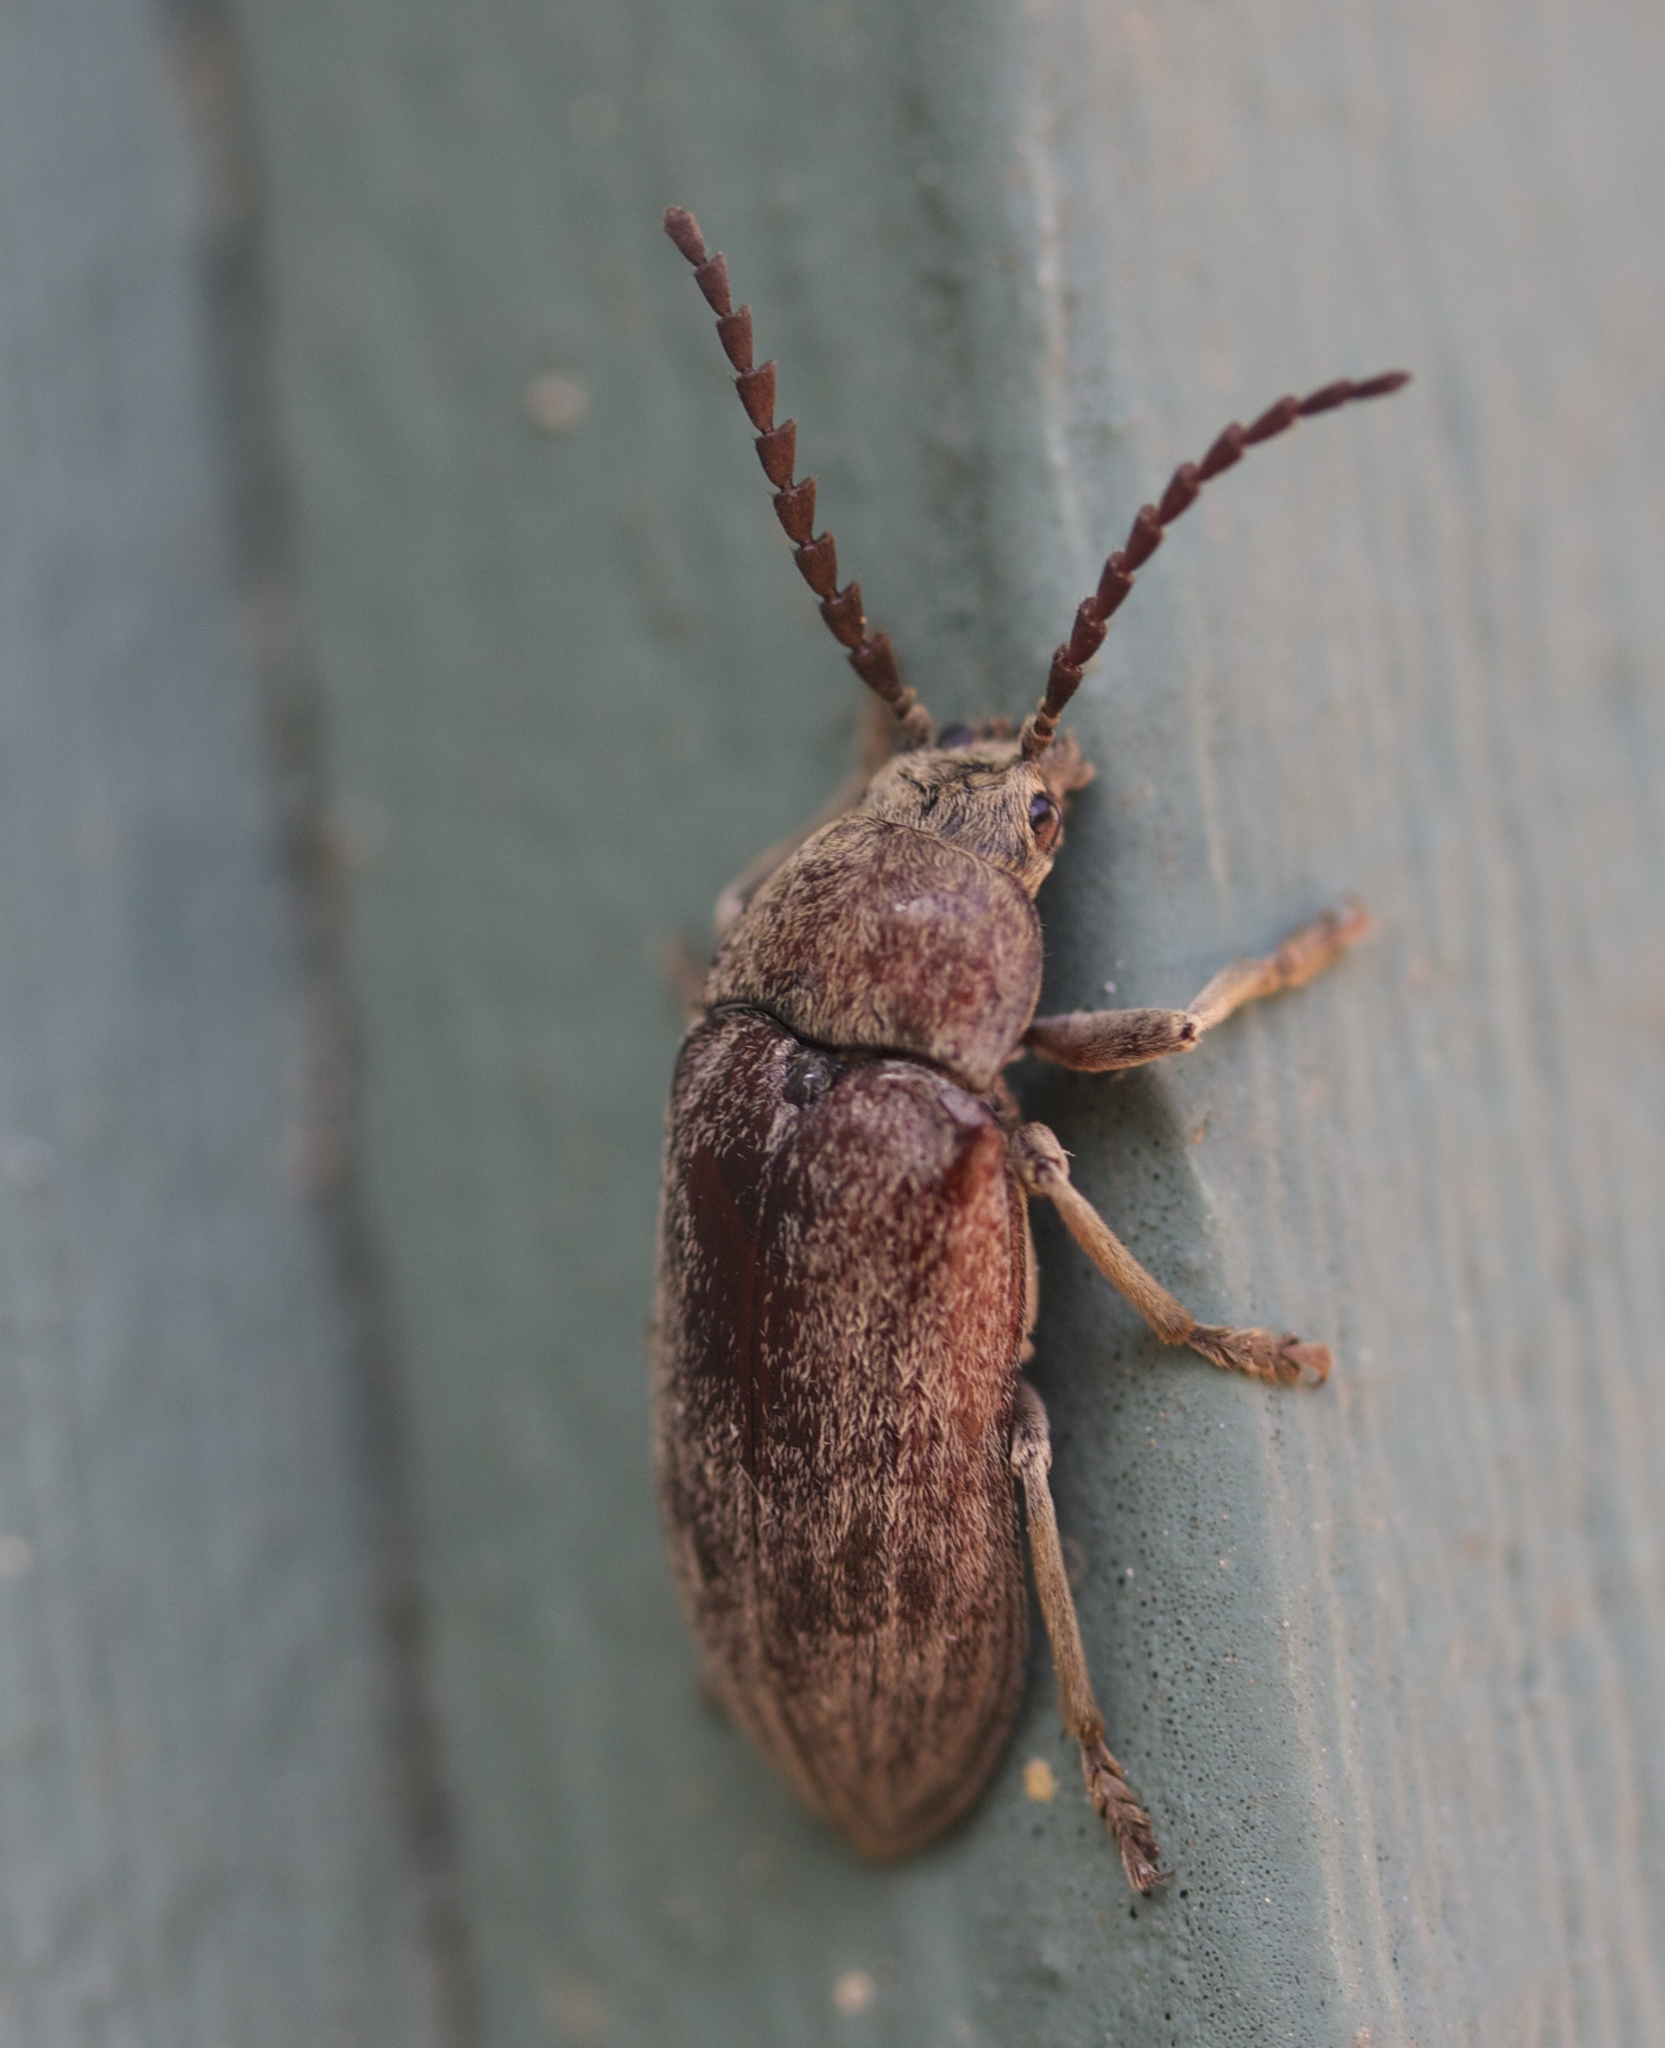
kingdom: Animalia
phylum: Arthropoda
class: Insecta
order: Coleoptera
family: Dascillidae
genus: Dascillus
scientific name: Dascillus davidsoni
